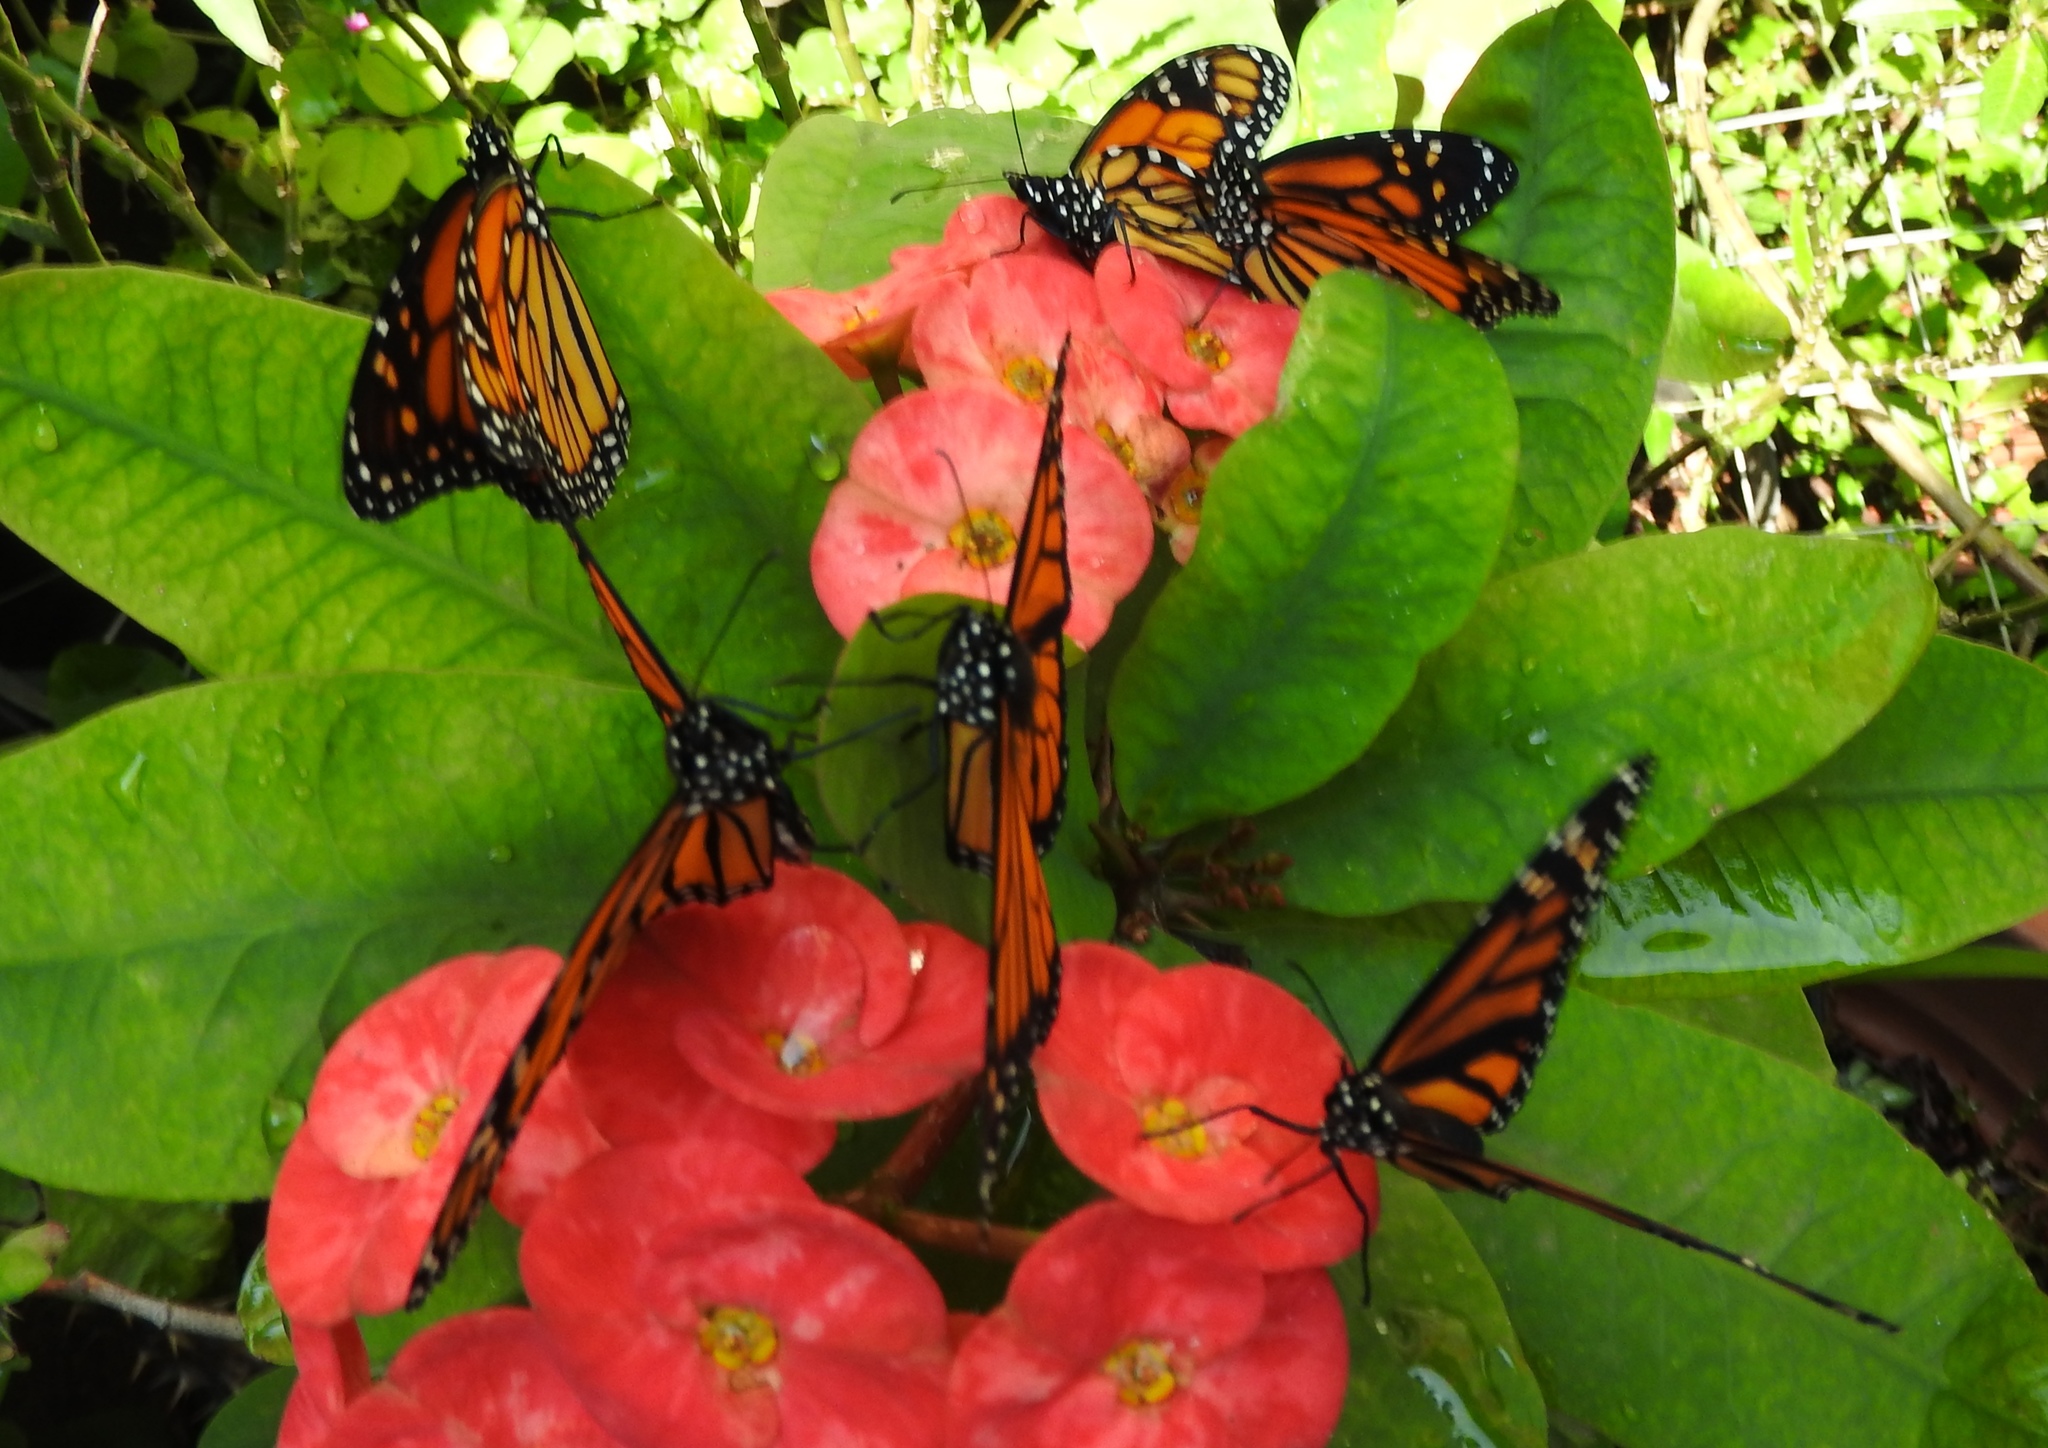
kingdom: Animalia
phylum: Arthropoda
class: Insecta
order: Lepidoptera
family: Nymphalidae
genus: Danaus
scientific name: Danaus plexippus
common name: Monarch
